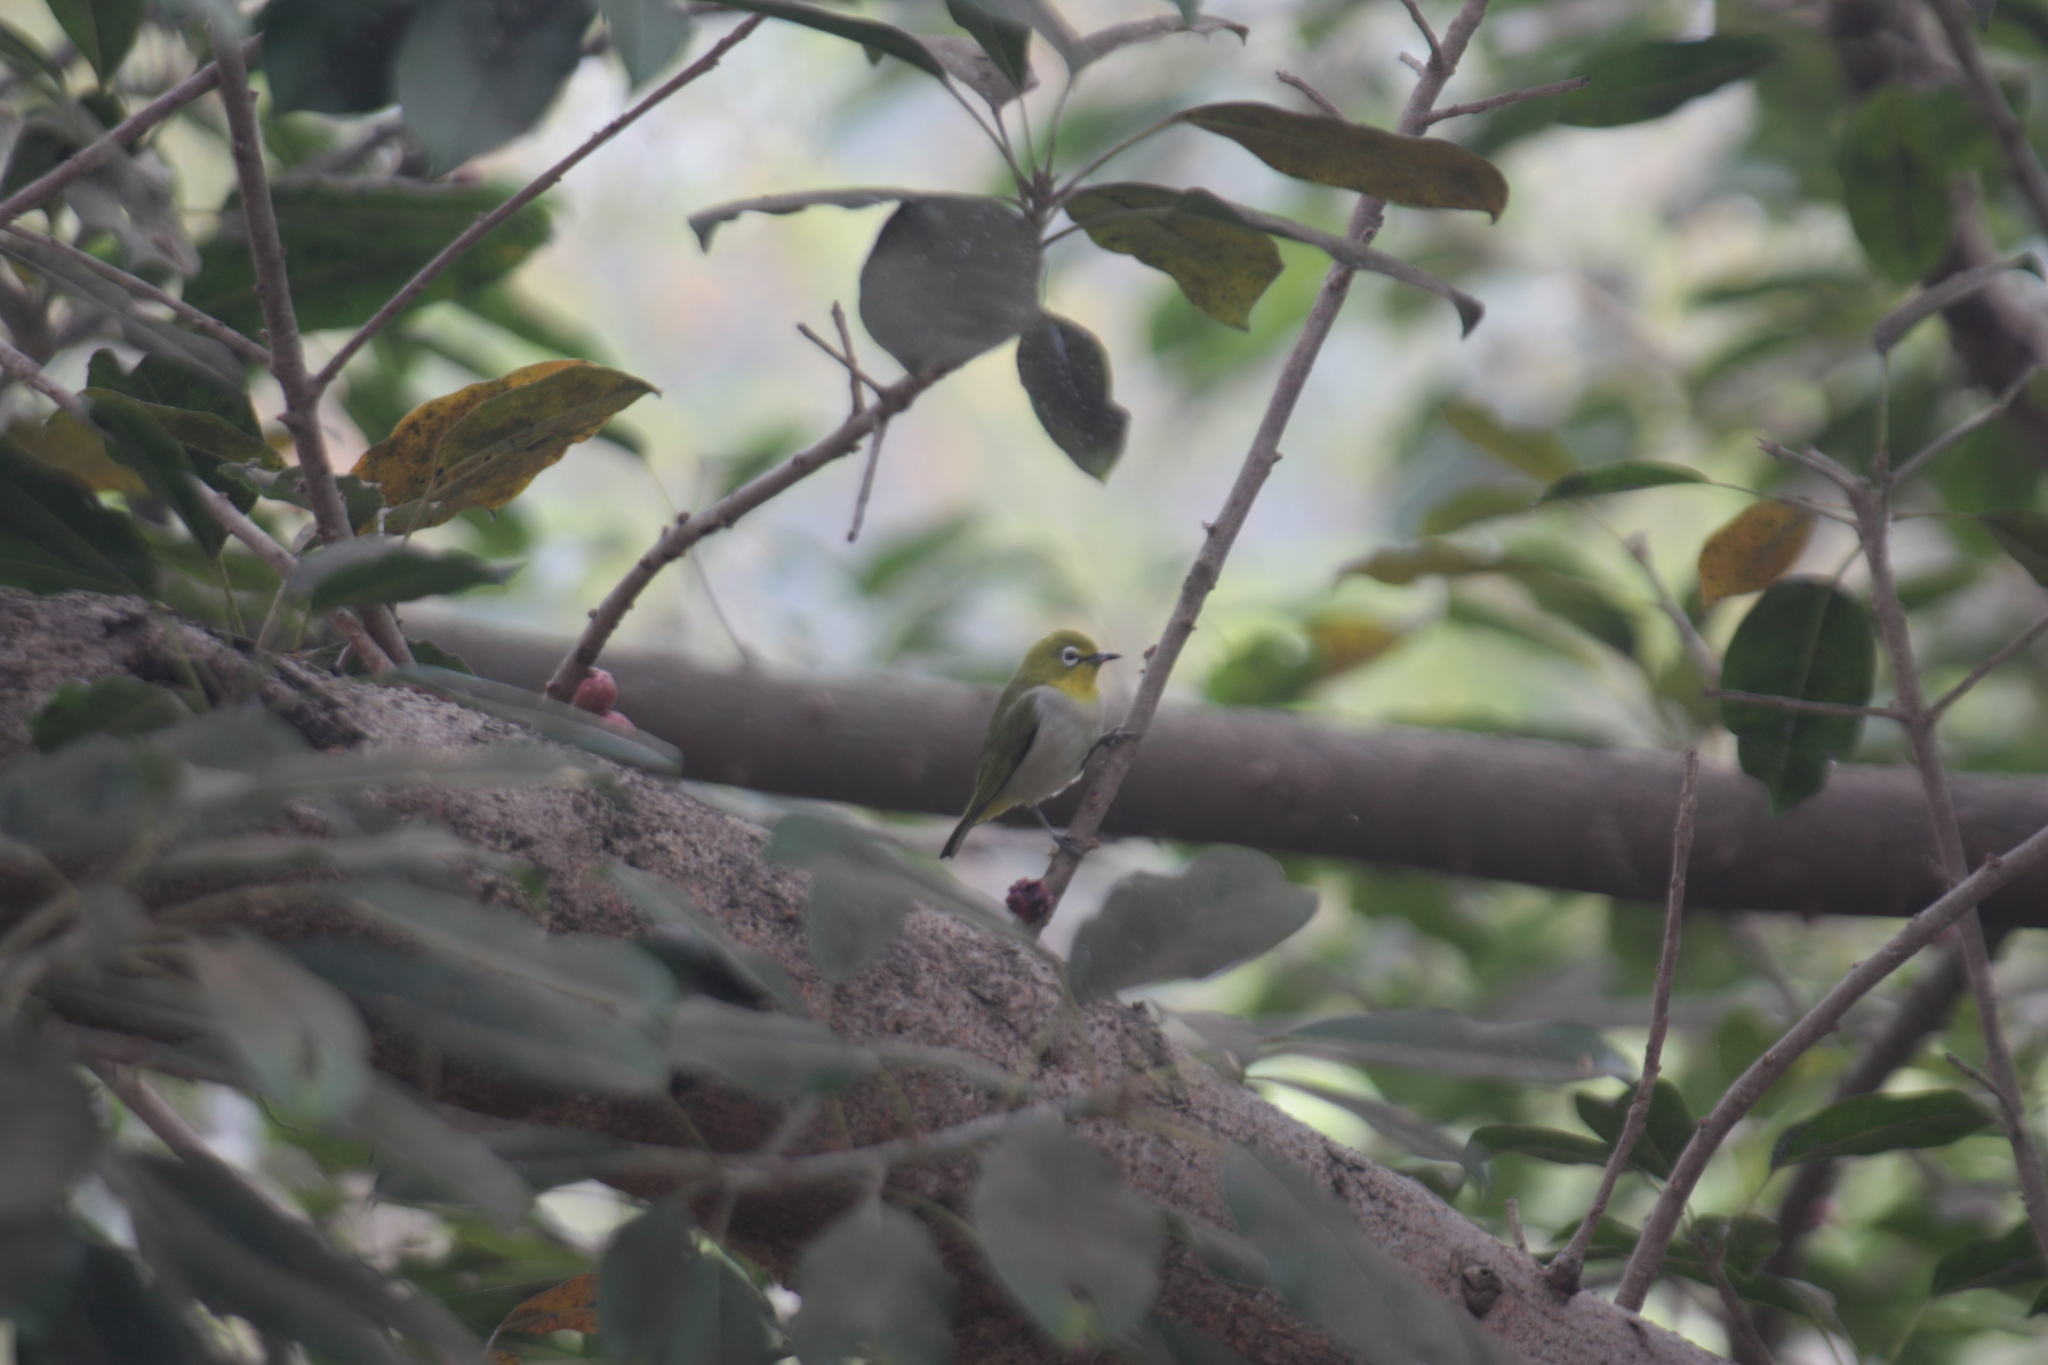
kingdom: Animalia
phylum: Chordata
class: Aves
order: Passeriformes
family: Zosteropidae
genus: Zosterops
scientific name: Zosterops simplex
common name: Swinhoe's white-eye
